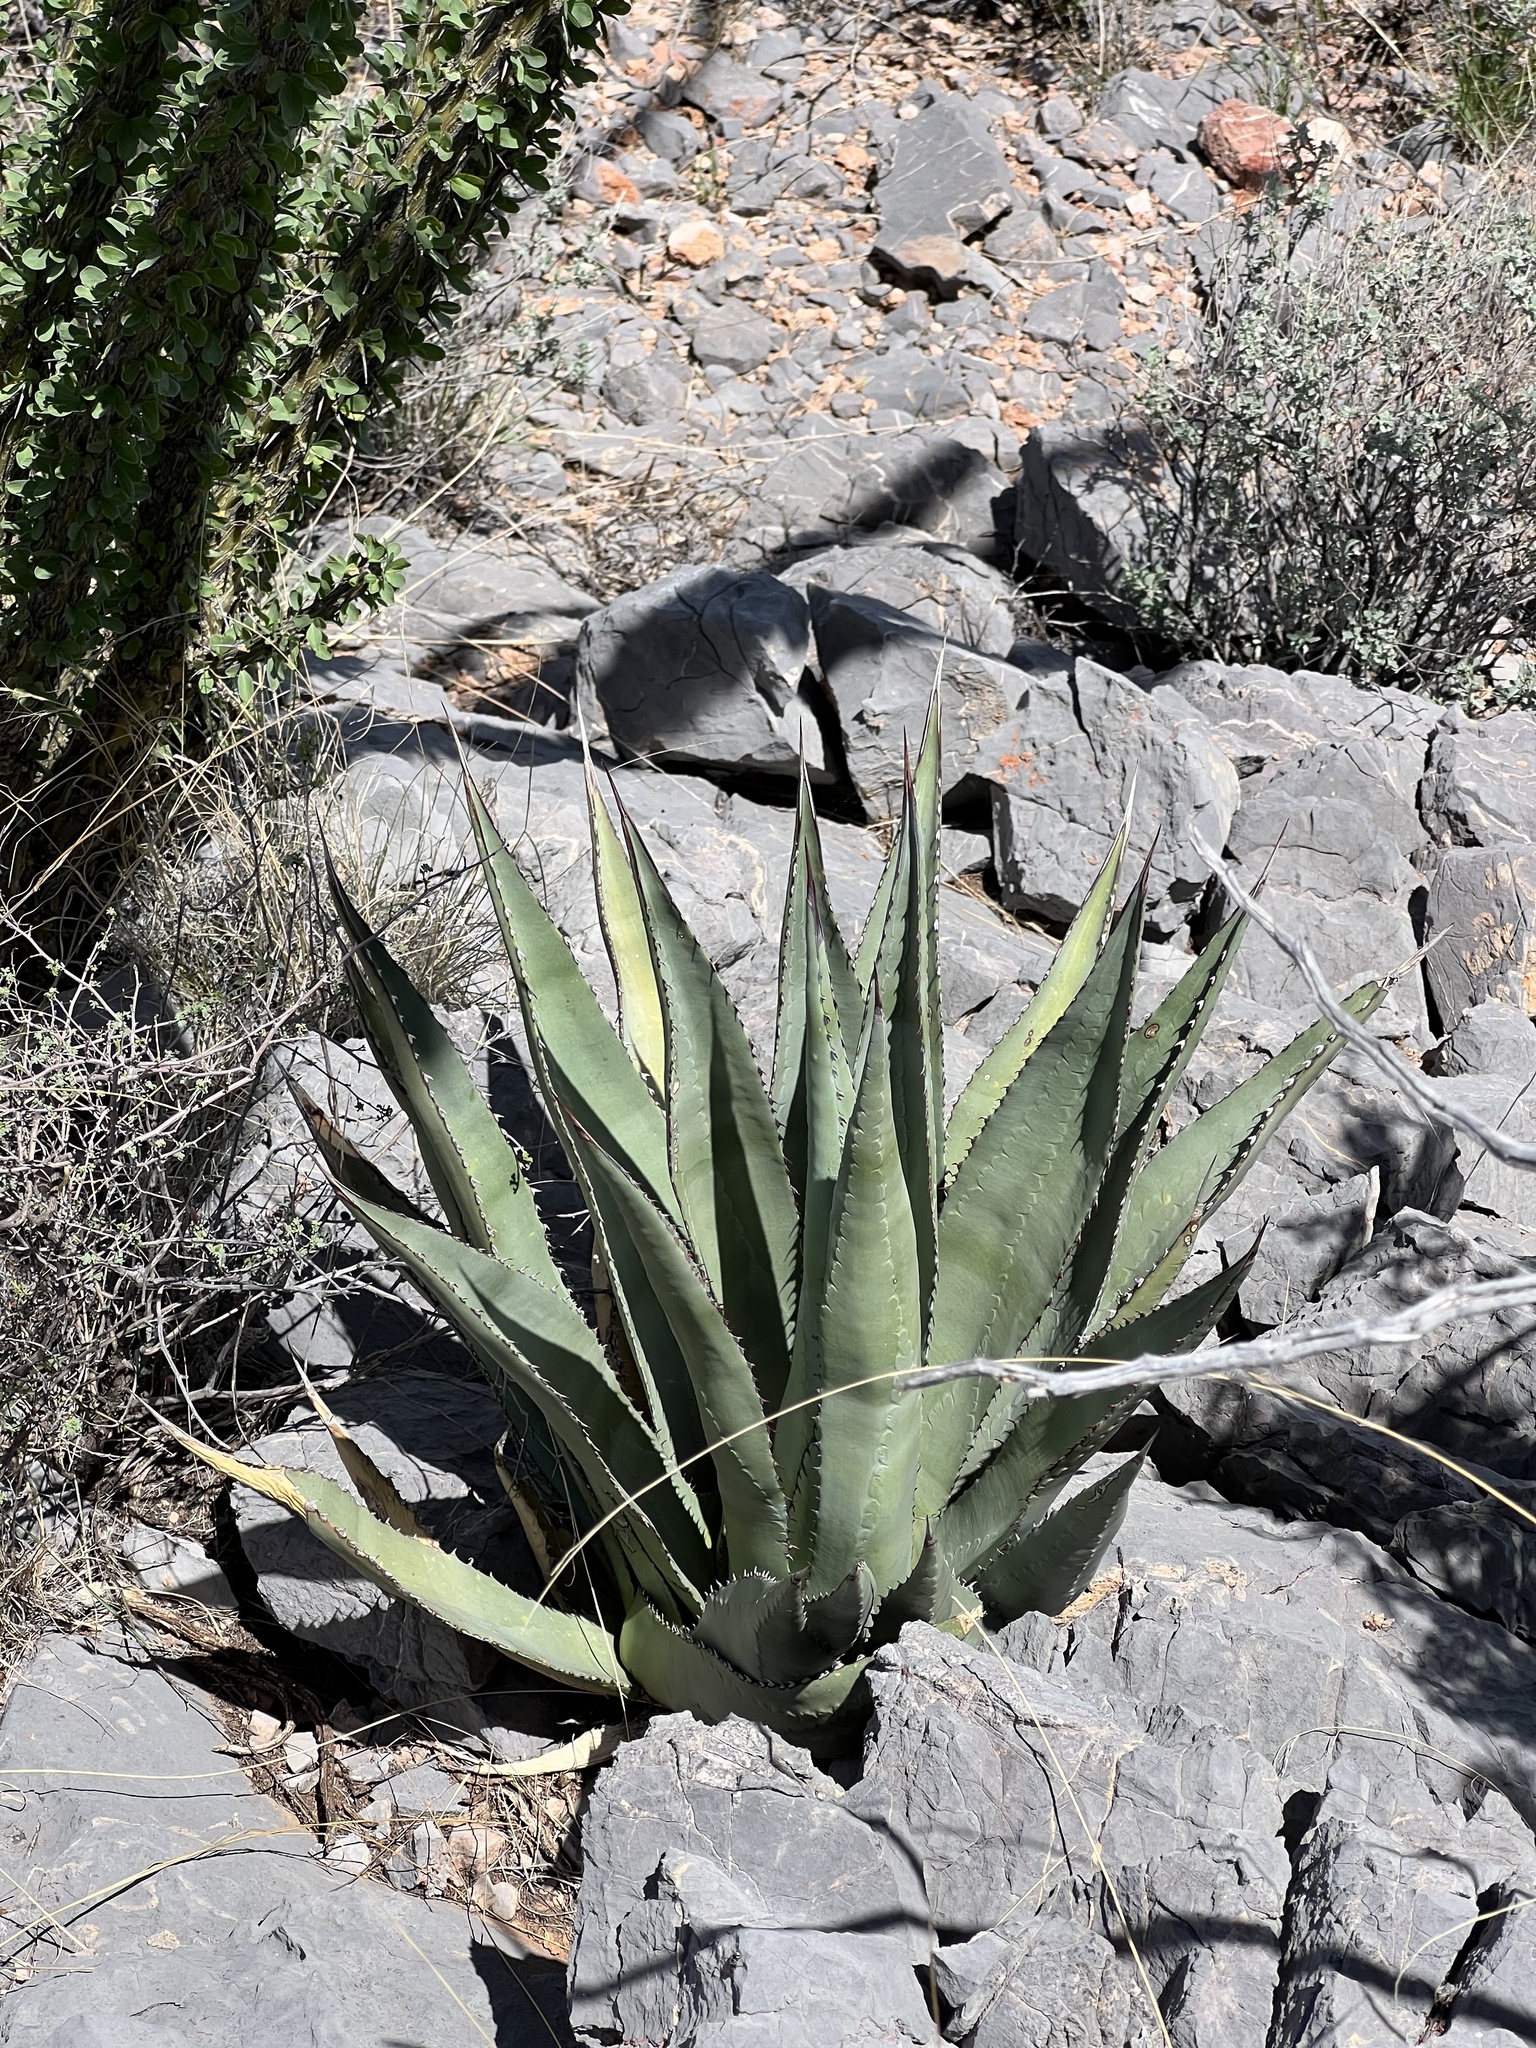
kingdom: Plantae
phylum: Tracheophyta
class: Liliopsida
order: Asparagales
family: Asparagaceae
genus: Agave
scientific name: Agave palmeri
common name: Palmer agave
